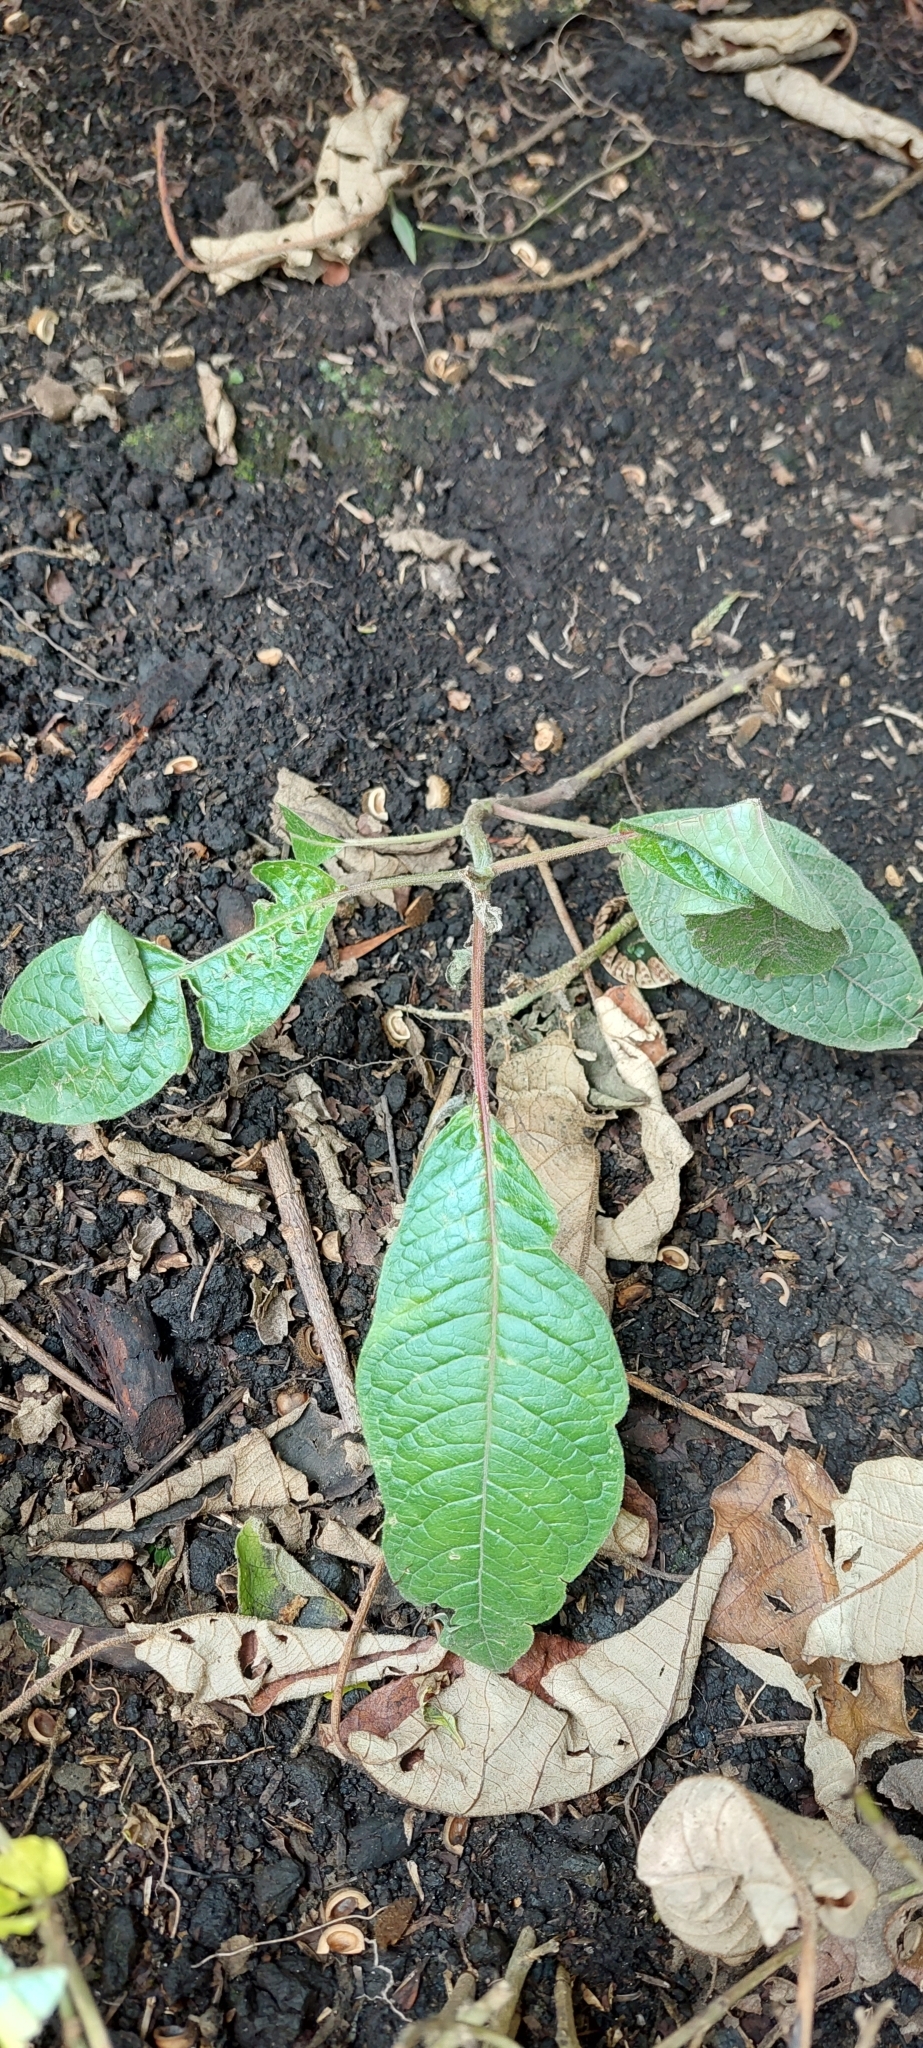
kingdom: Plantae
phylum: Tracheophyta
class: Magnoliopsida
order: Myrtales
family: Onagraceae
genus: Fuchsia
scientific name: Fuchsia boliviana
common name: Bolivian fuchsia
